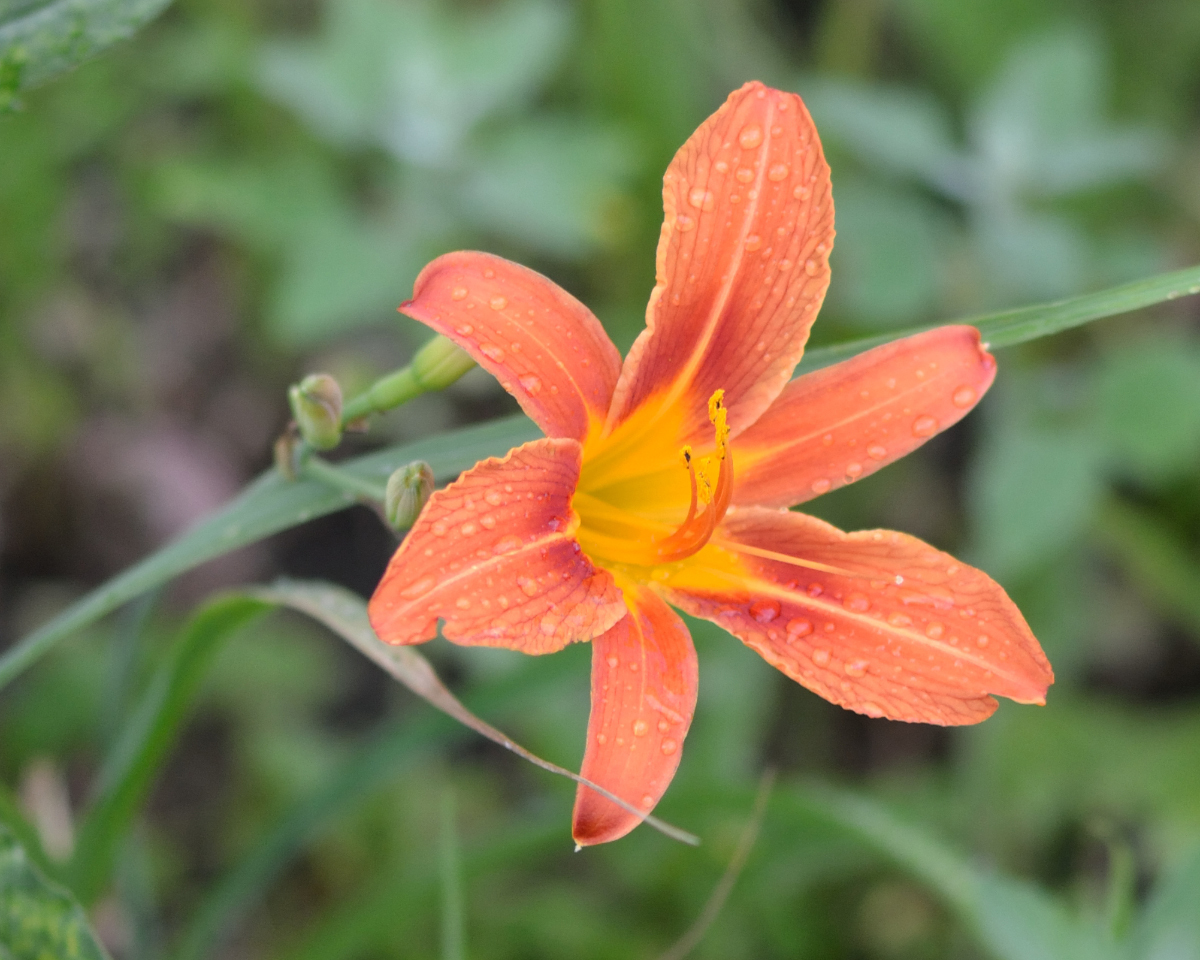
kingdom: Plantae
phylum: Tracheophyta
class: Liliopsida
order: Asparagales
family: Asphodelaceae
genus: Hemerocallis
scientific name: Hemerocallis fulva
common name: Orange day-lily
